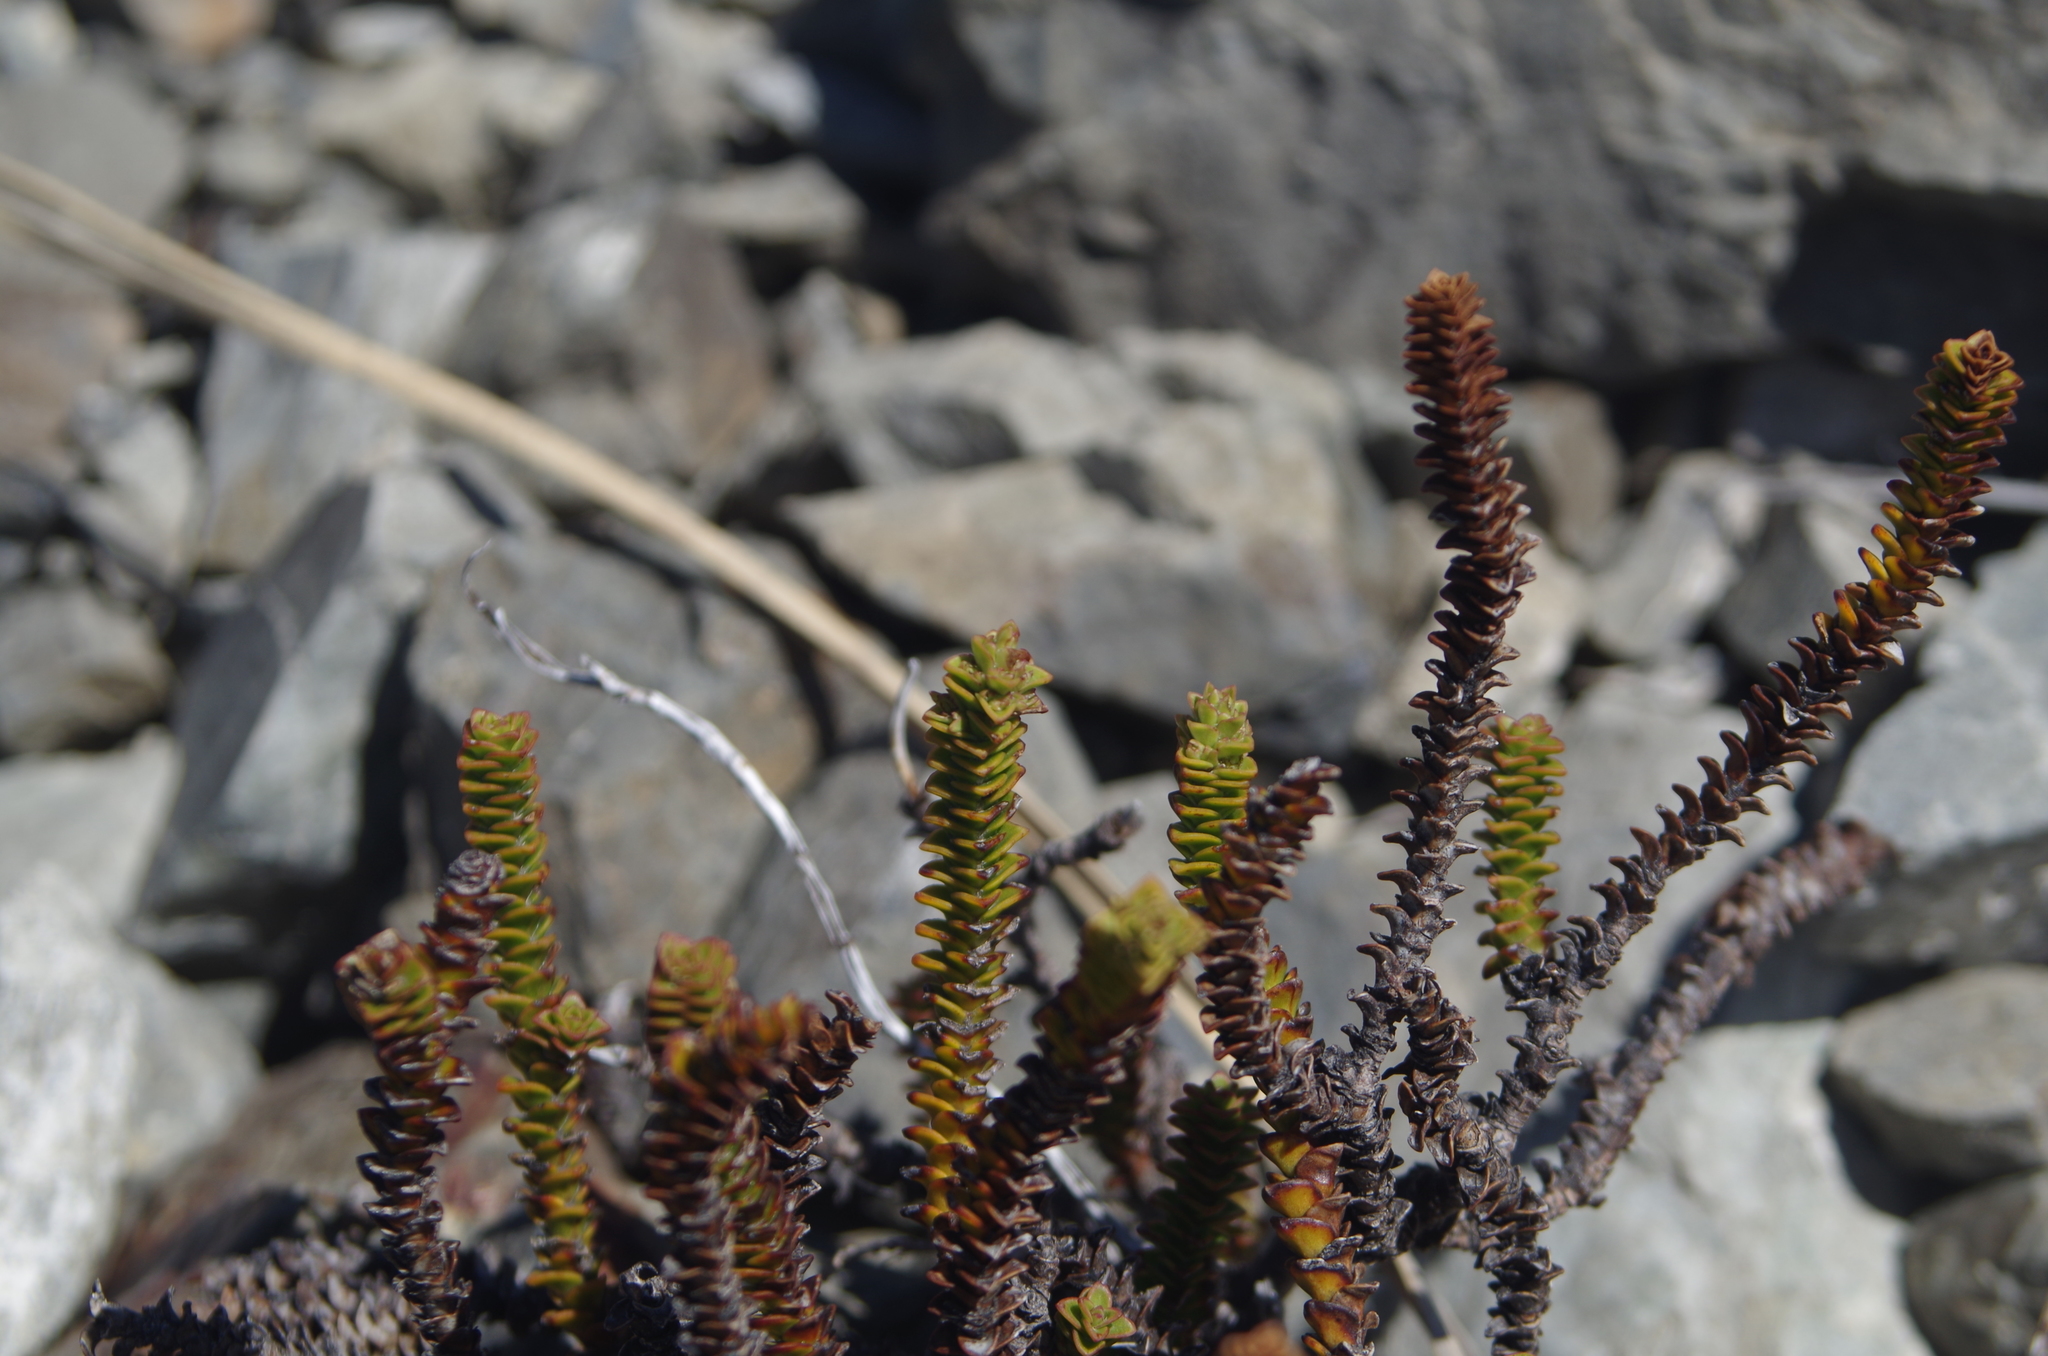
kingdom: Plantae
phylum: Tracheophyta
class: Magnoliopsida
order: Lamiales
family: Plantaginaceae
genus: Veronica
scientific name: Veronica epacridea
